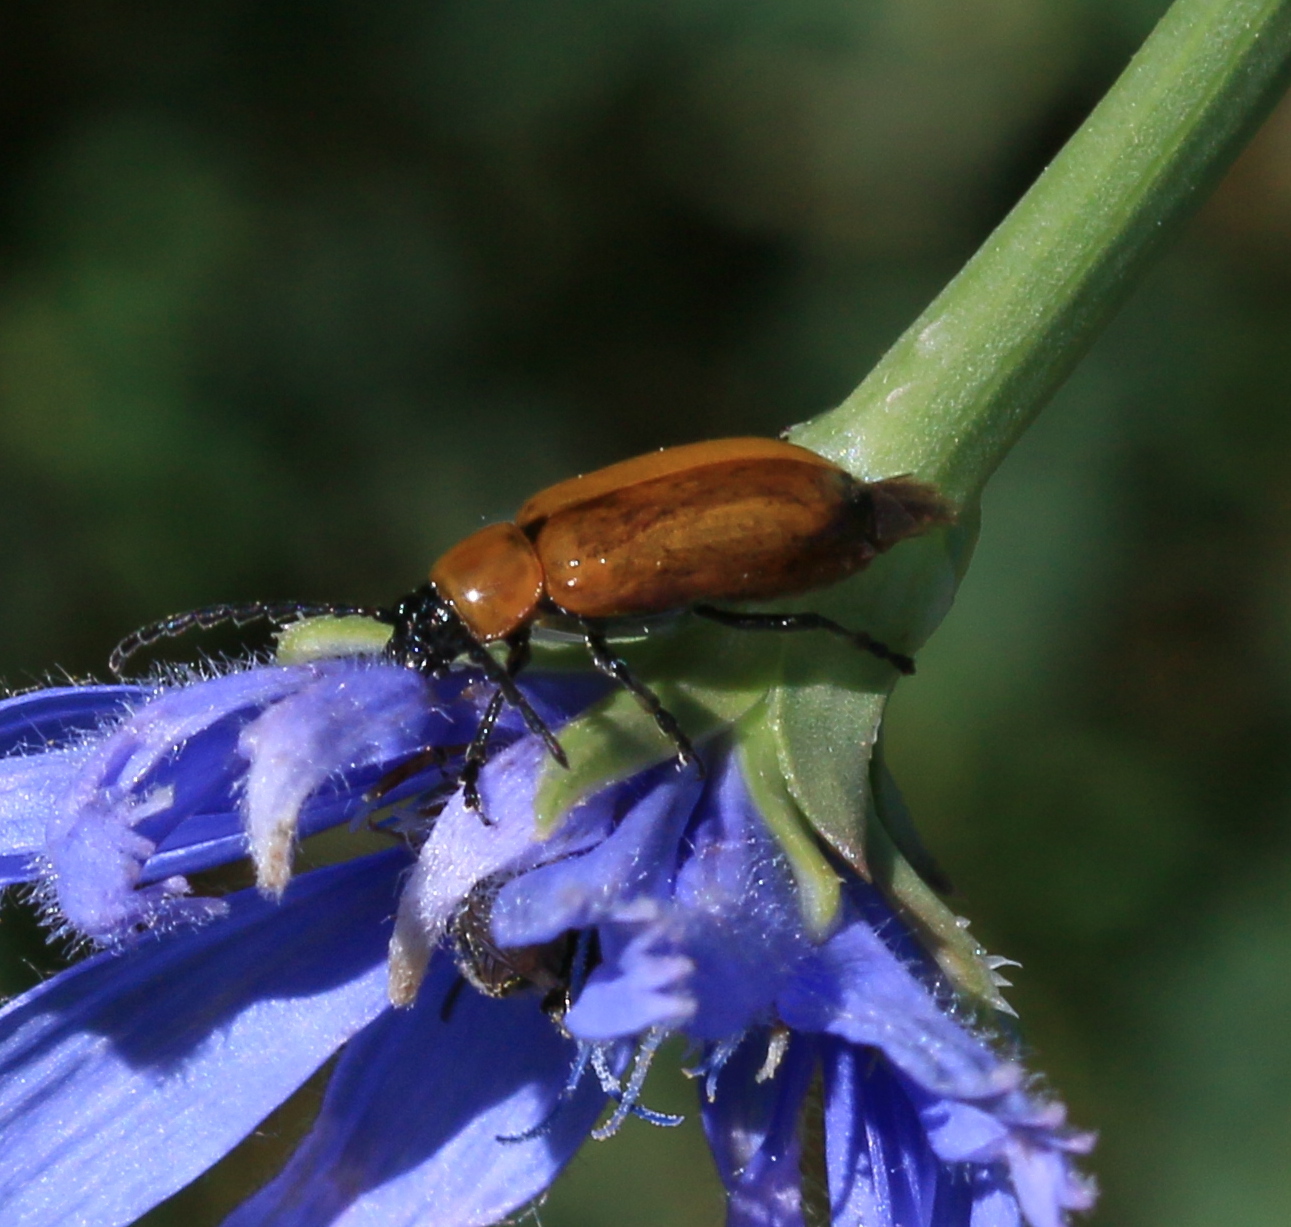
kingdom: Animalia
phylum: Arthropoda
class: Insecta
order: Coleoptera
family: Chrysomelidae
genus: Exosoma
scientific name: Exosoma lusitanicum
